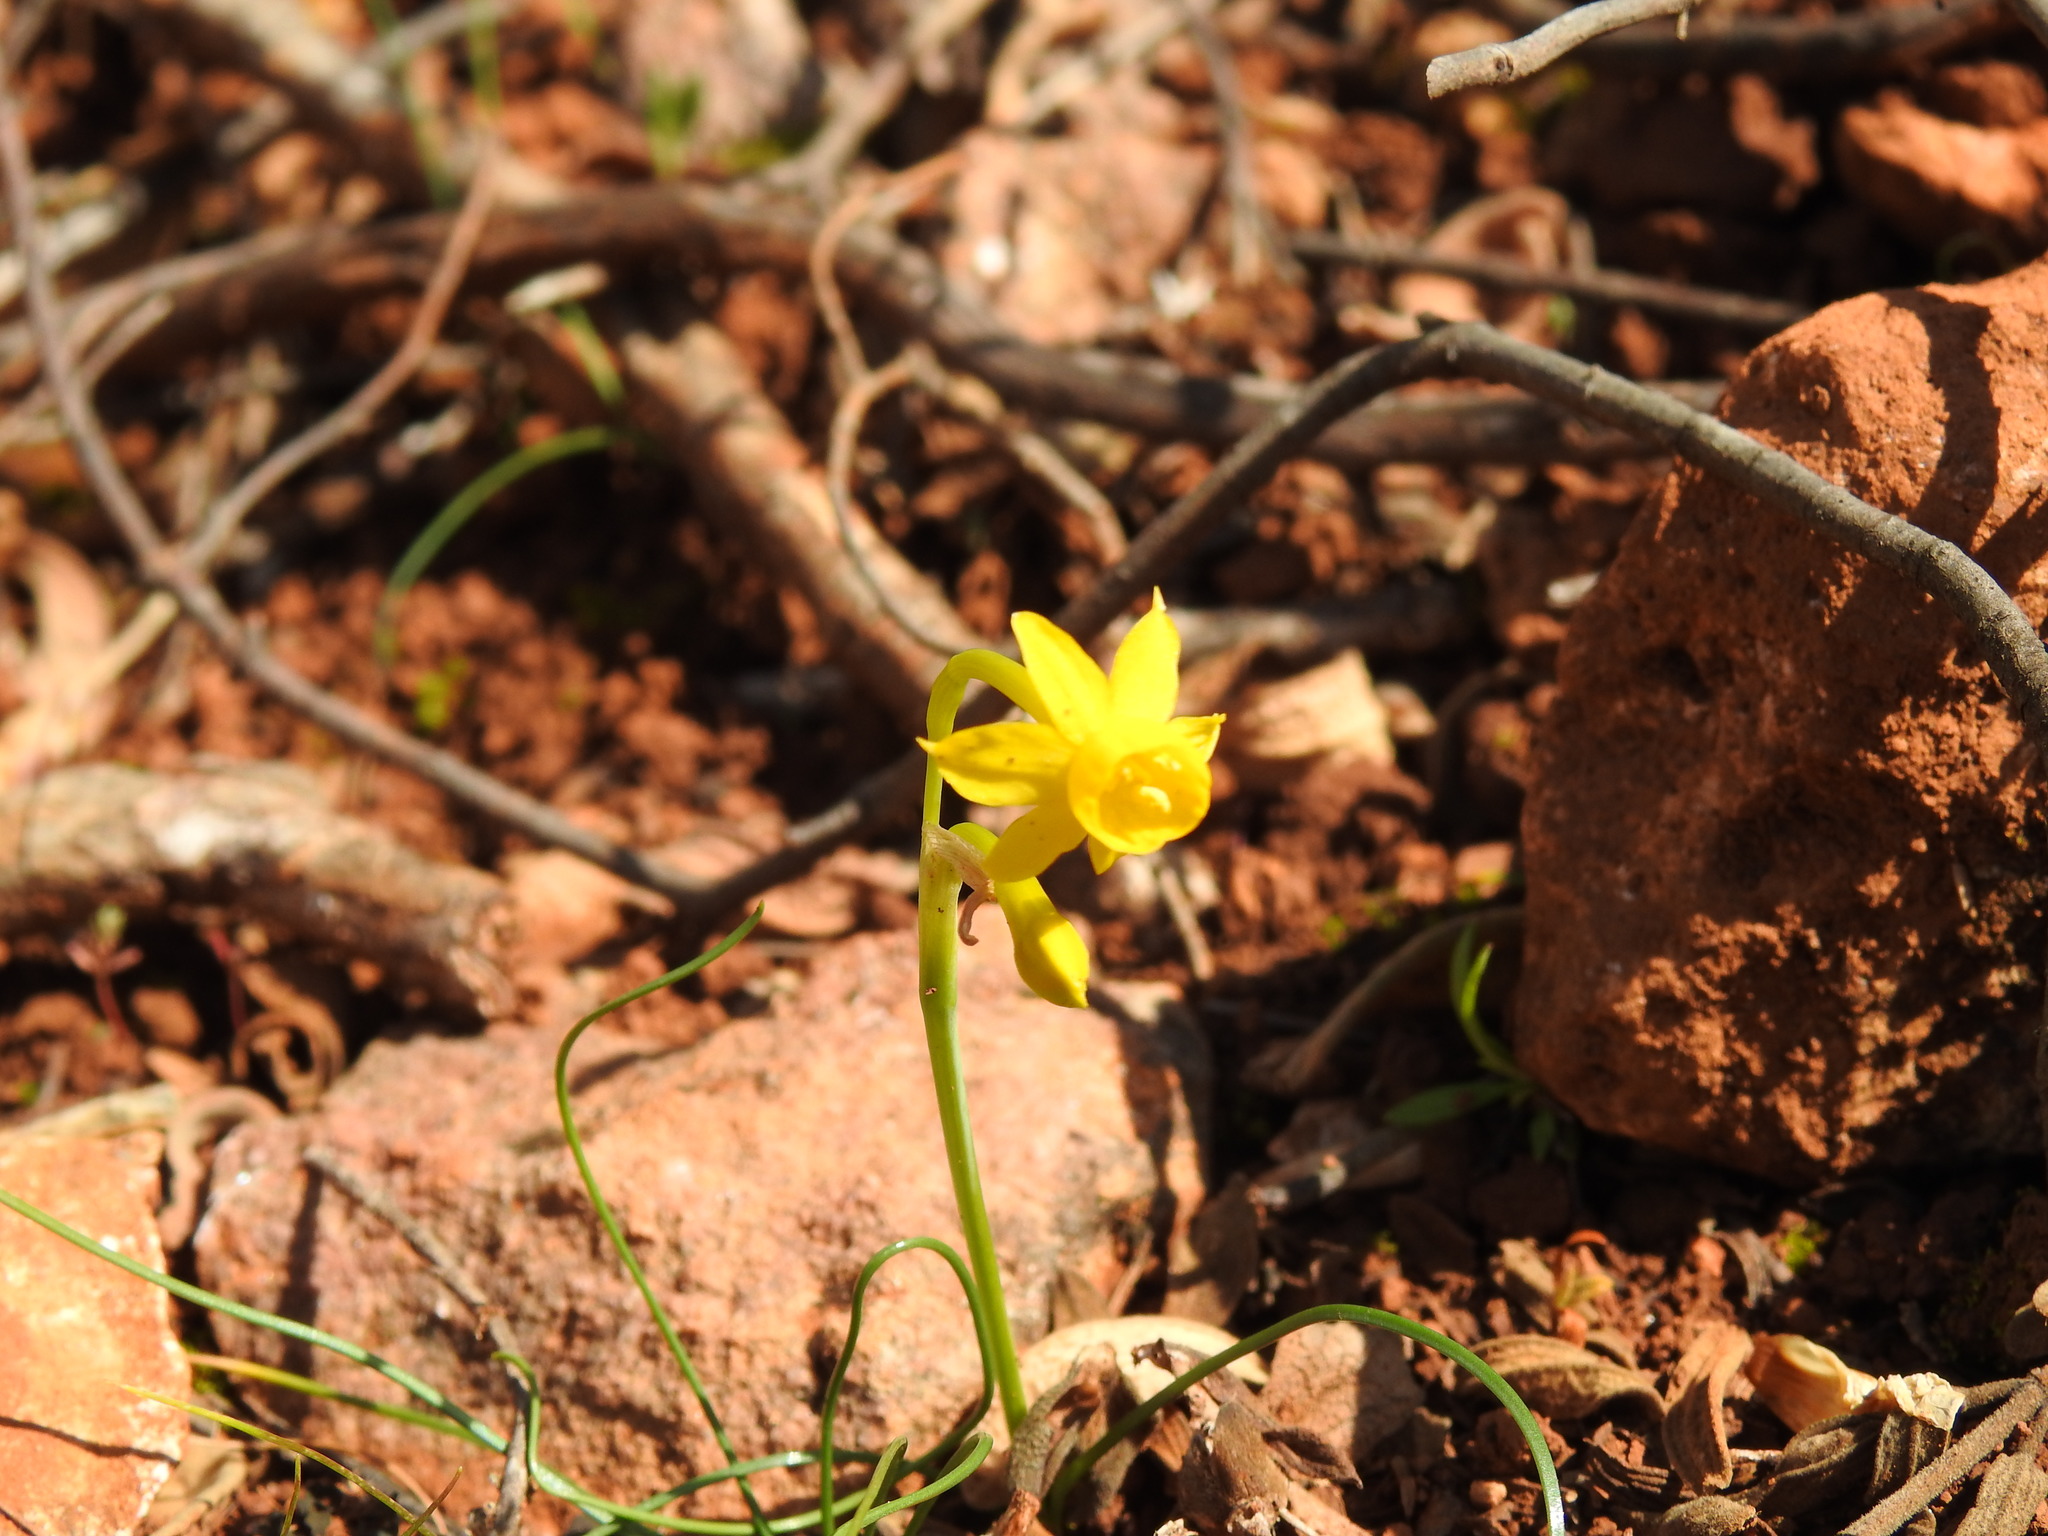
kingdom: Plantae
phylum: Tracheophyta
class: Liliopsida
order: Asparagales
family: Amaryllidaceae
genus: Narcissus
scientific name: Narcissus gaditanus
